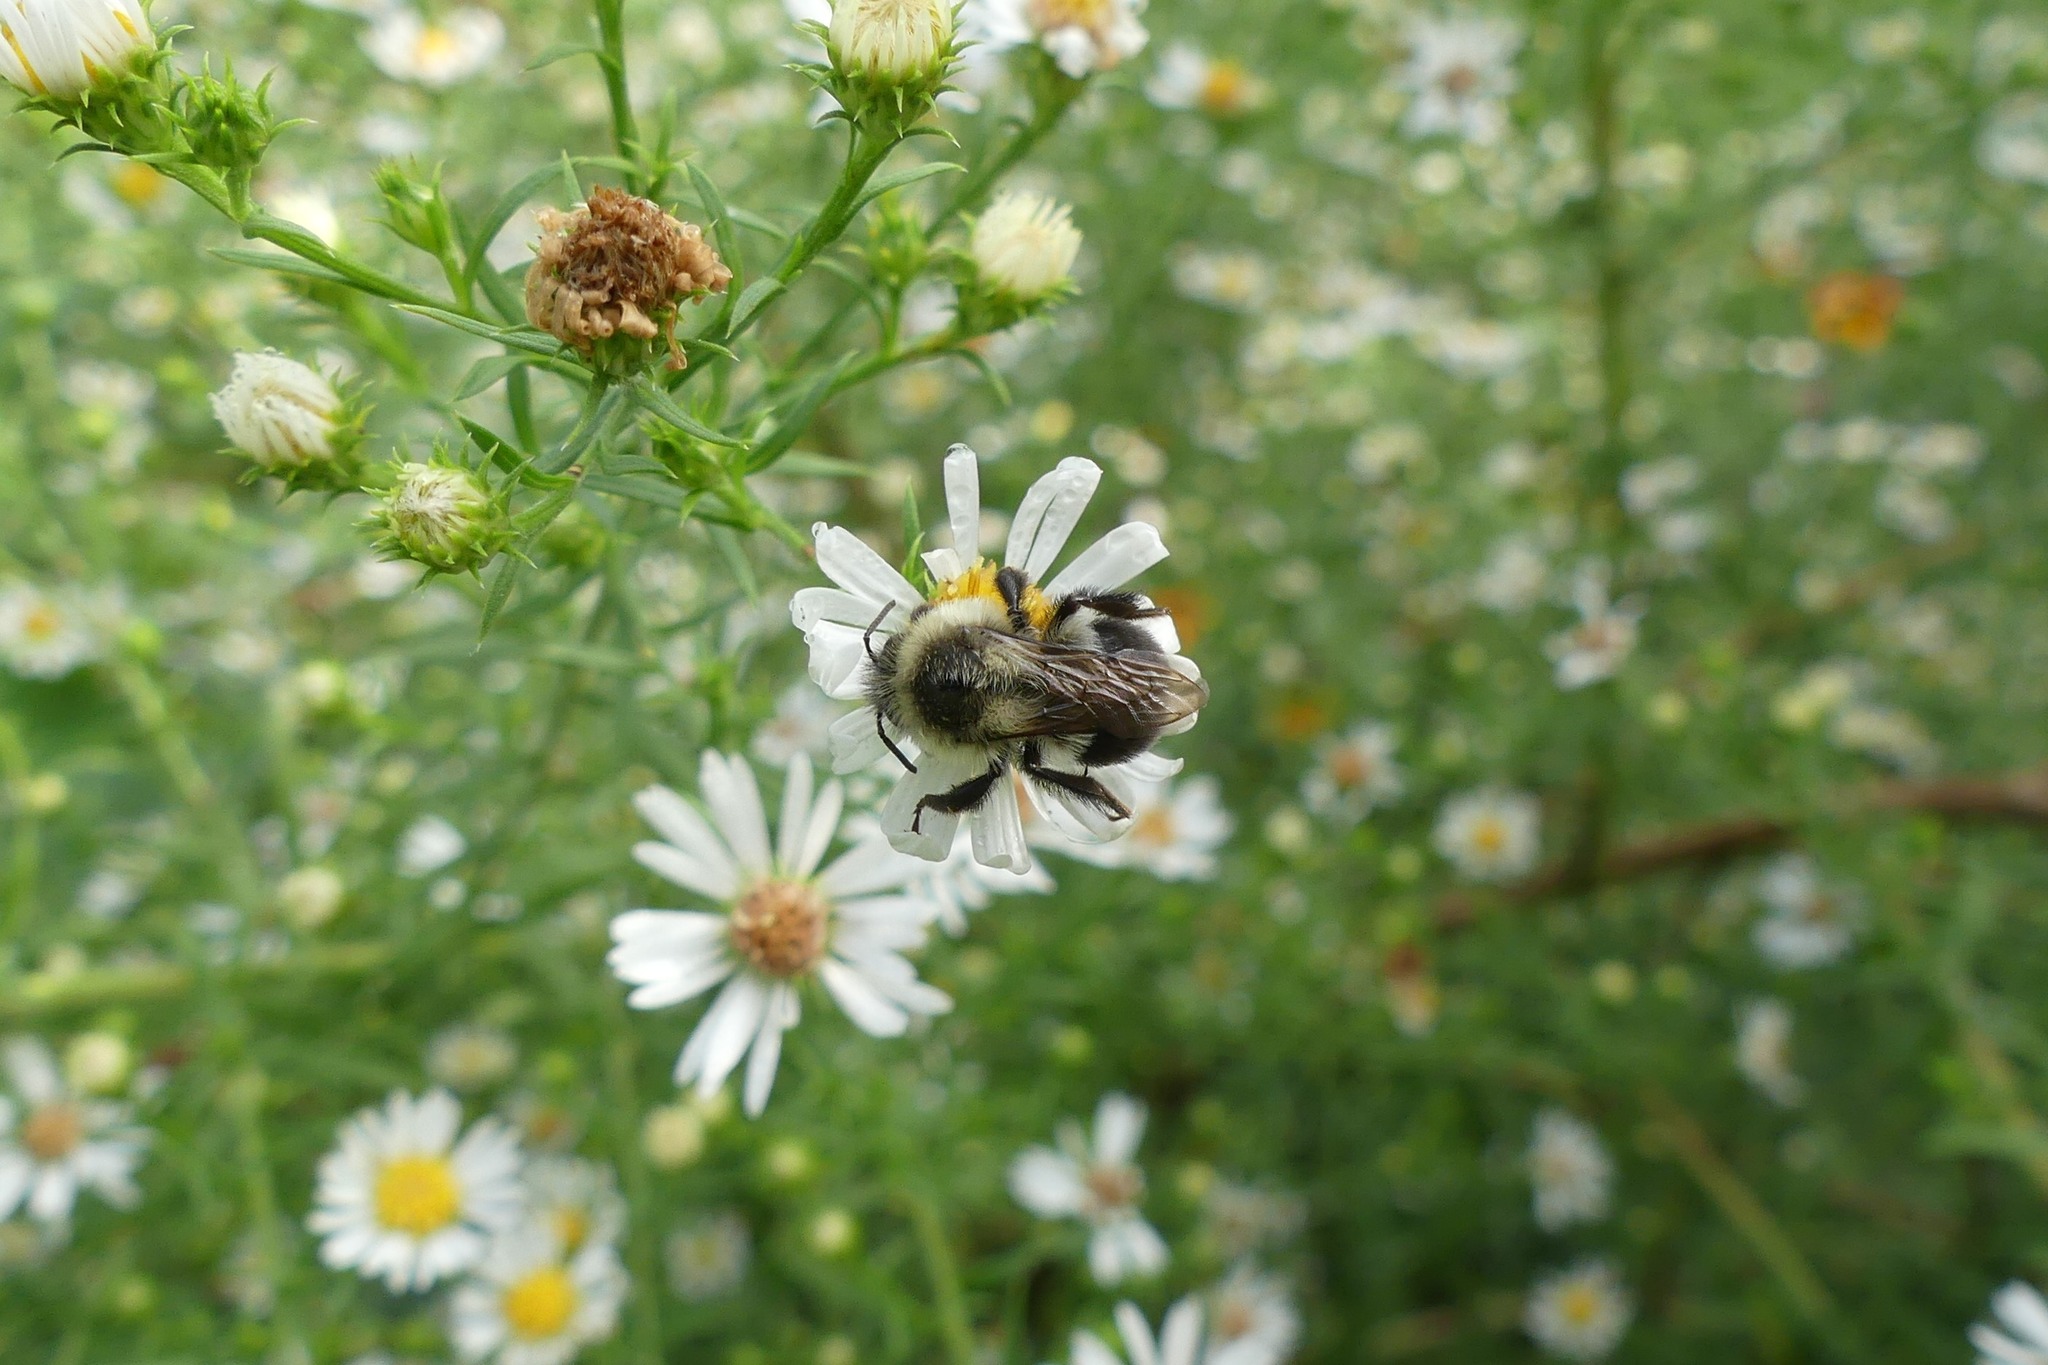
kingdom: Animalia
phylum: Arthropoda
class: Insecta
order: Hymenoptera
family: Apidae
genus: Bombus
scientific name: Bombus impatiens
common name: Common eastern bumble bee
